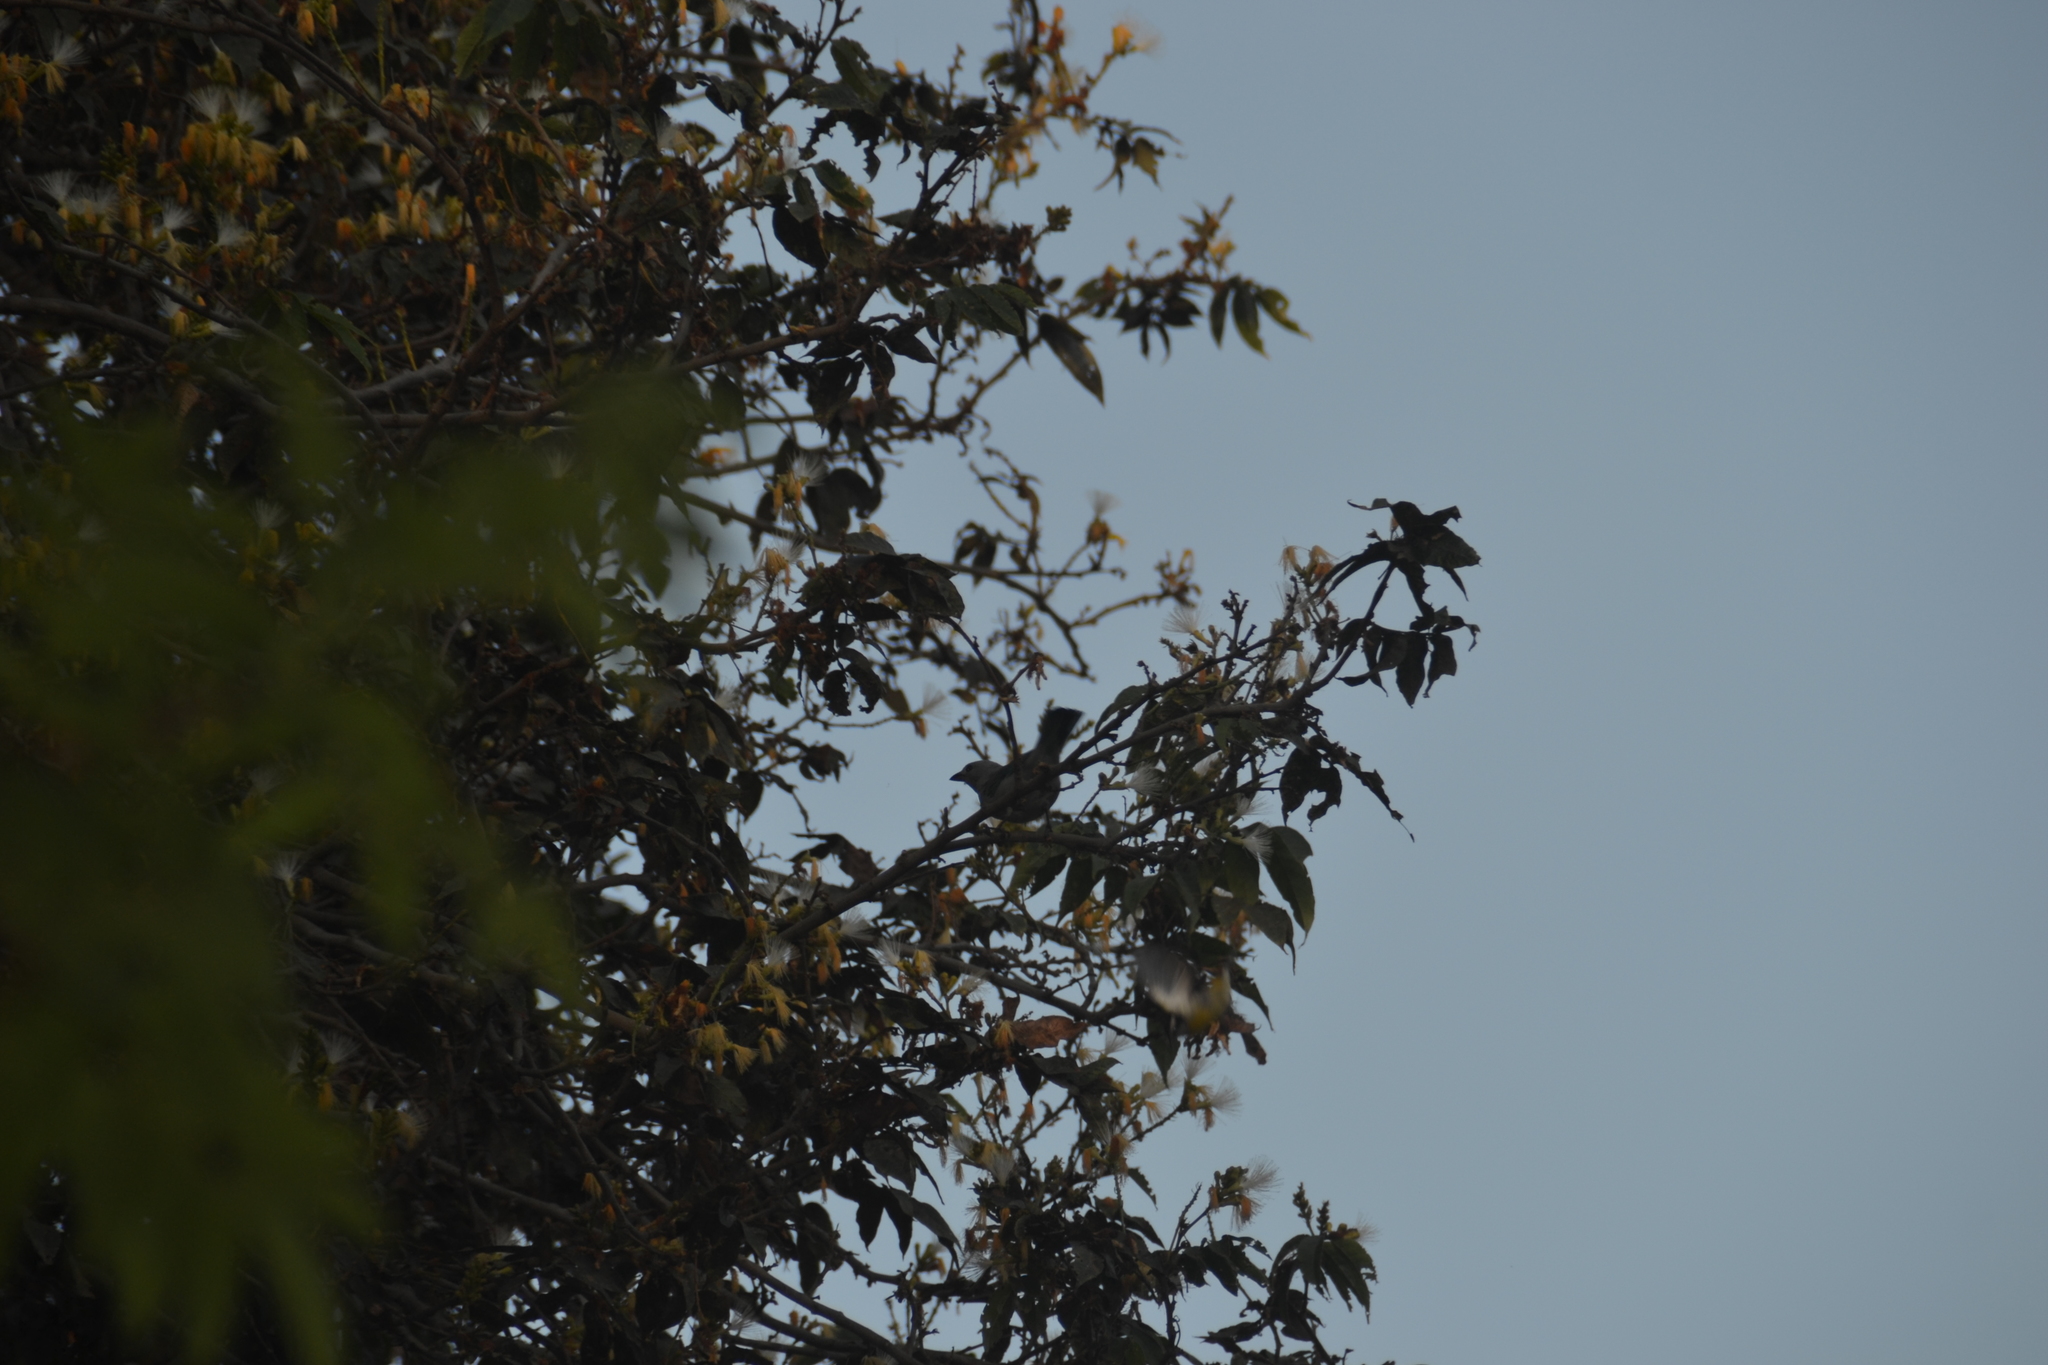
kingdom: Animalia
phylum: Chordata
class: Aves
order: Passeriformes
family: Thraupidae
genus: Thraupis
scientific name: Thraupis episcopus
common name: Blue-grey tanager
